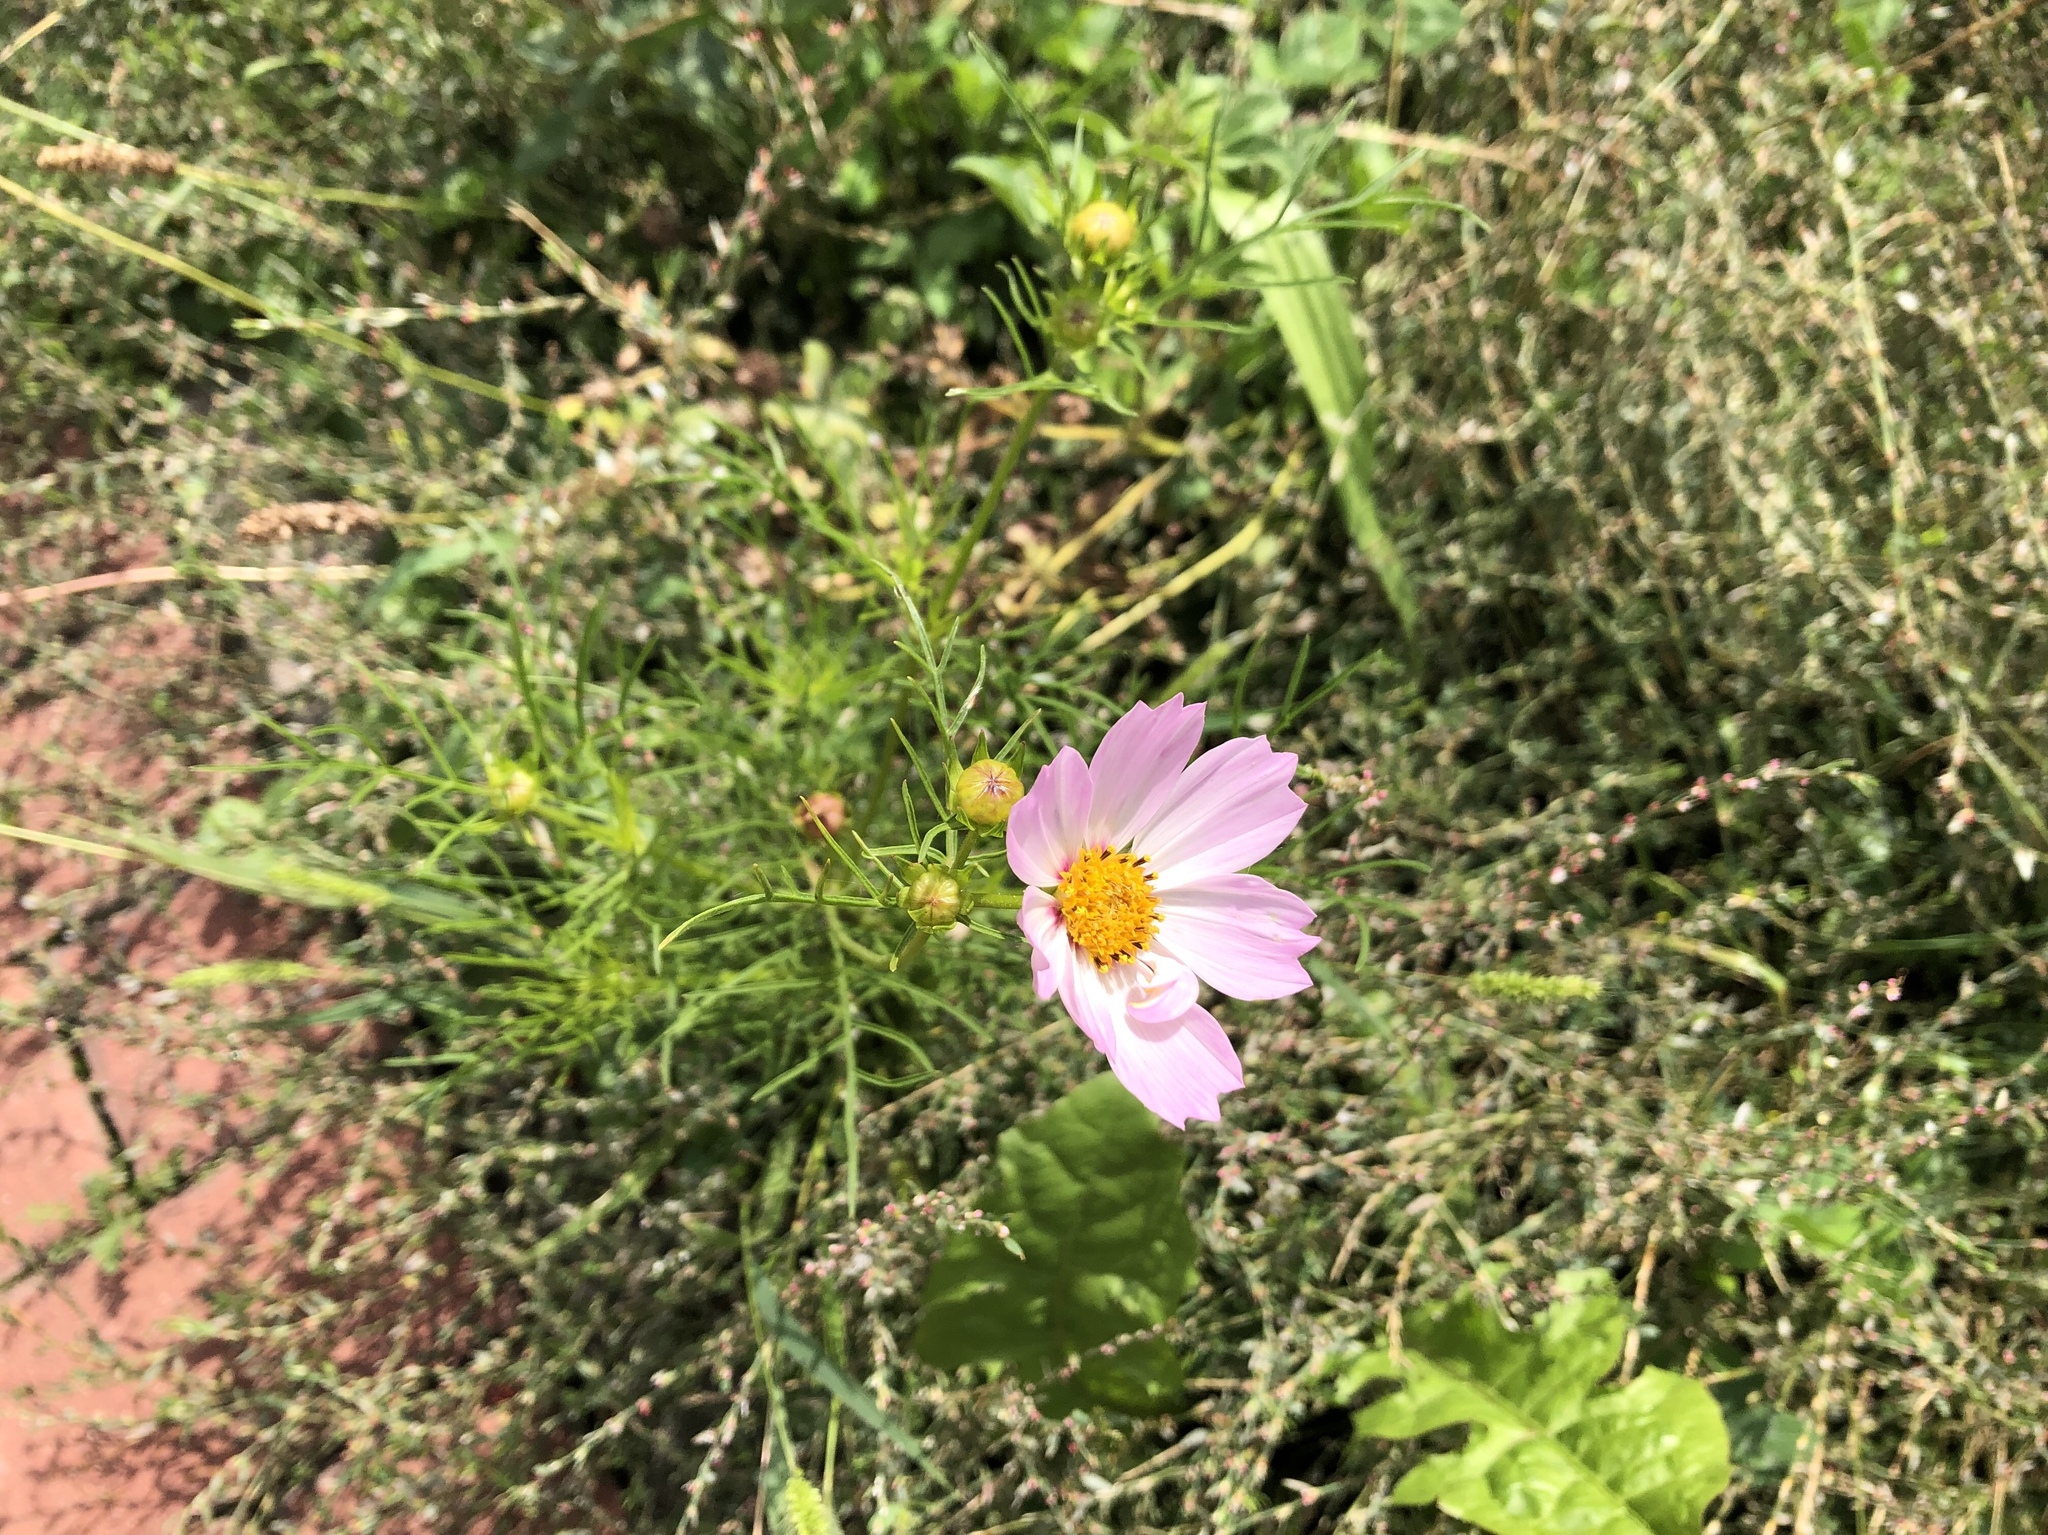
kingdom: Plantae
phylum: Tracheophyta
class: Magnoliopsida
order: Asterales
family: Asteraceae
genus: Cosmos
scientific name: Cosmos bipinnatus
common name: Garden cosmos
